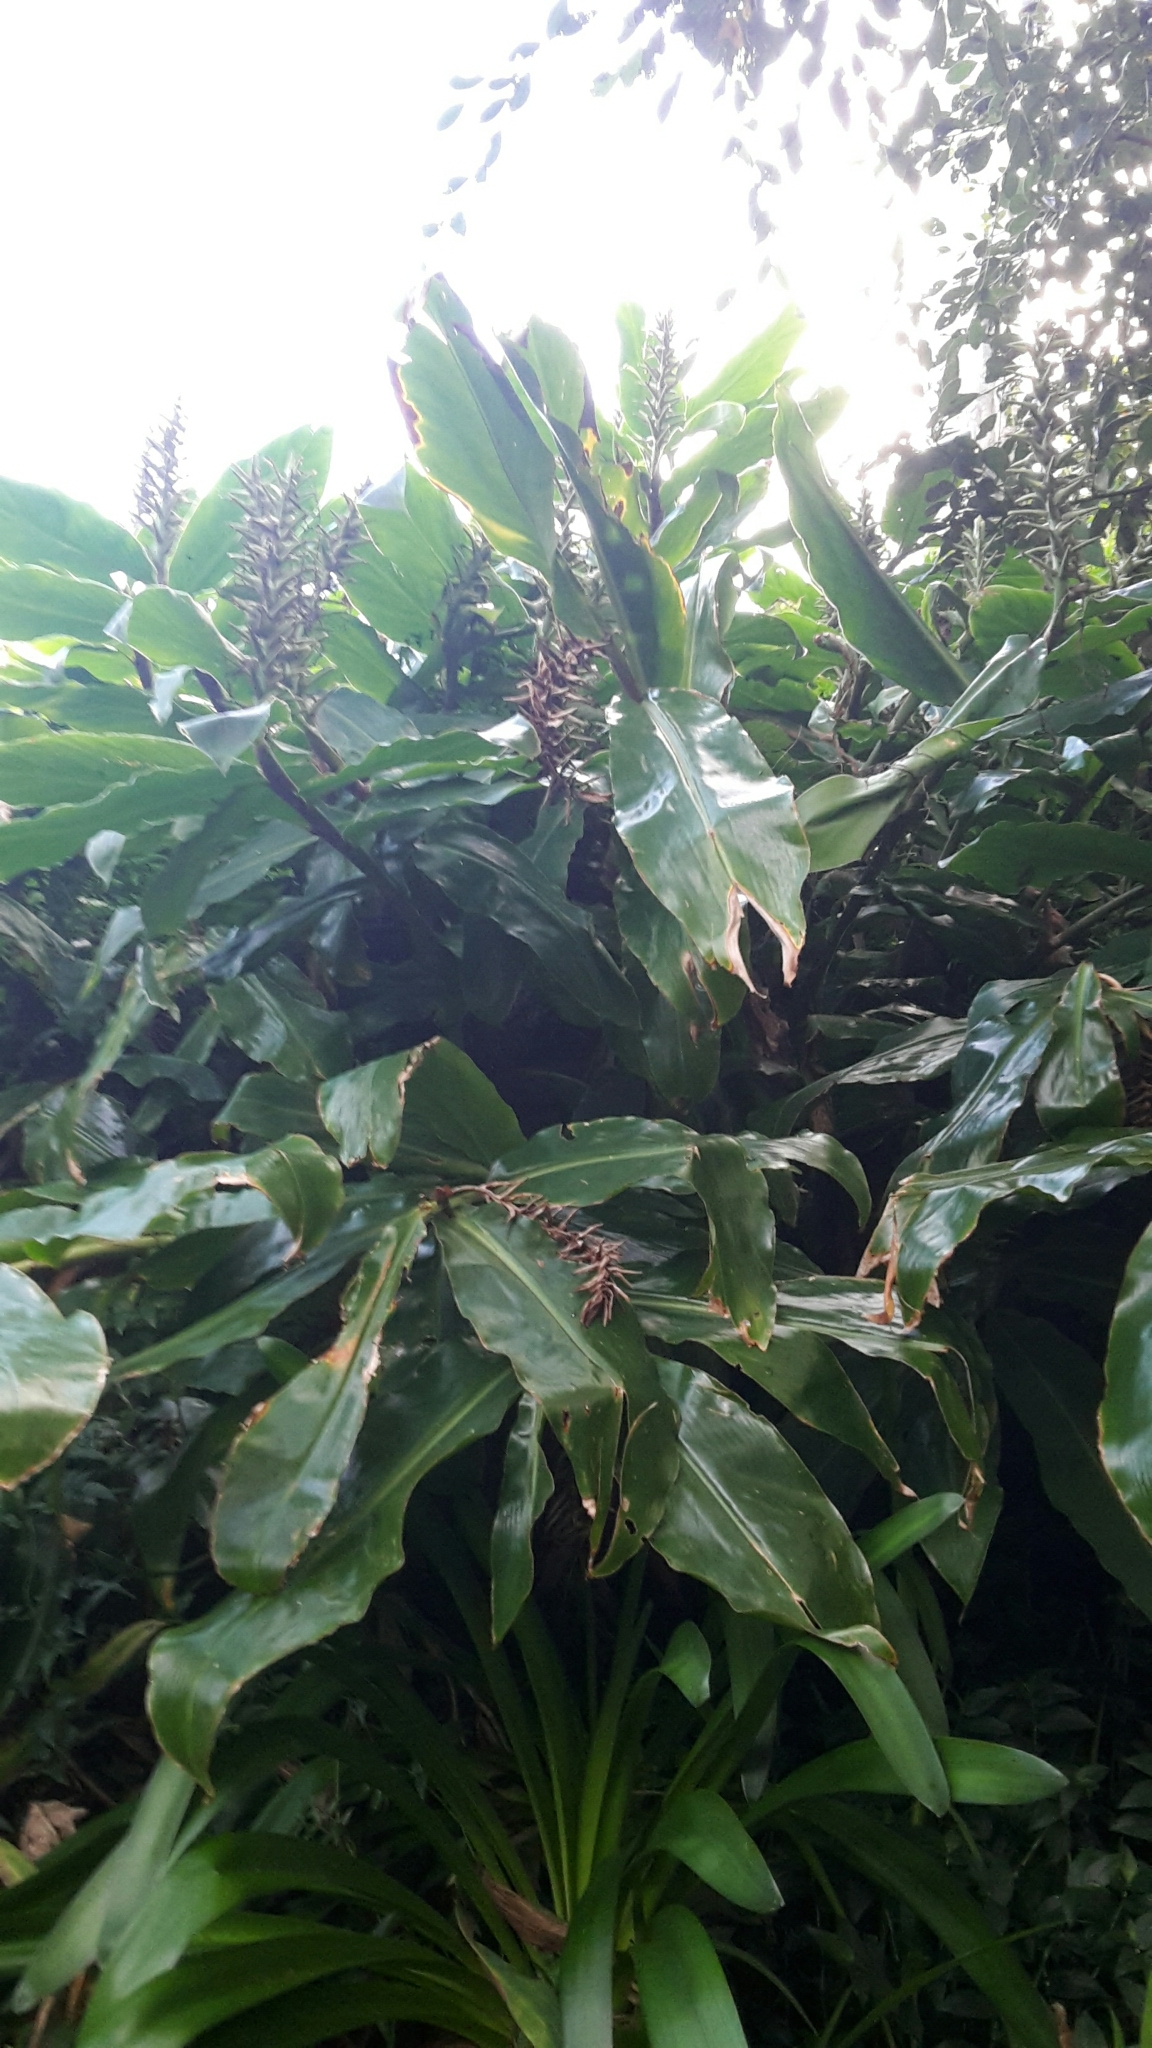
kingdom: Plantae
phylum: Tracheophyta
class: Liliopsida
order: Zingiberales
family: Zingiberaceae
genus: Hedychium
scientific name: Hedychium gardnerianum
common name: Himalayan ginger
